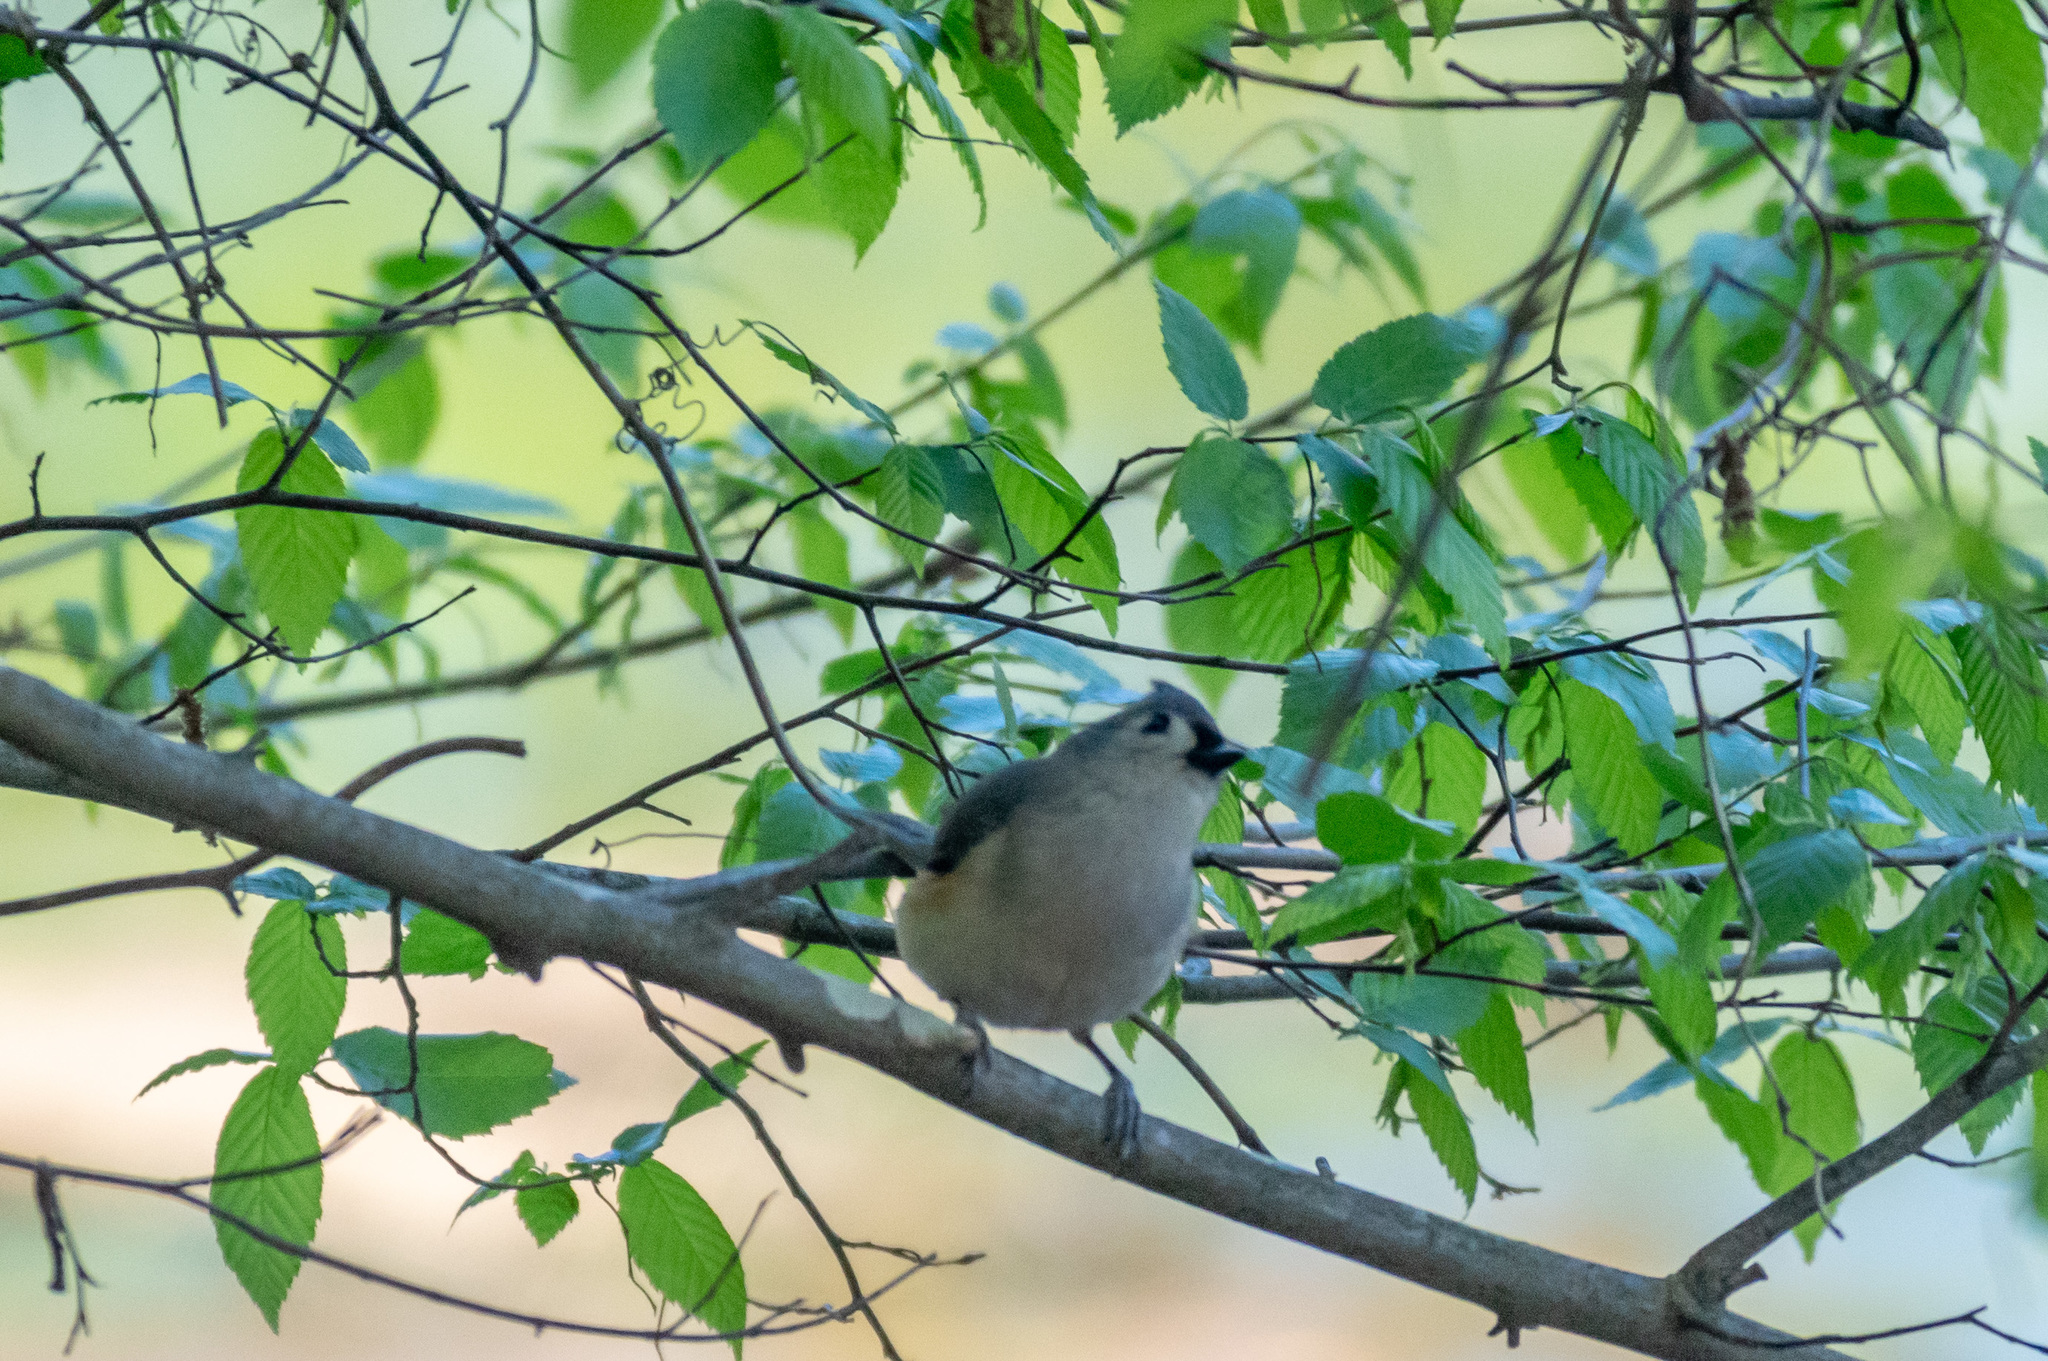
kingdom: Animalia
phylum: Chordata
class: Aves
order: Passeriformes
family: Paridae
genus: Baeolophus
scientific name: Baeolophus bicolor
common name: Tufted titmouse
